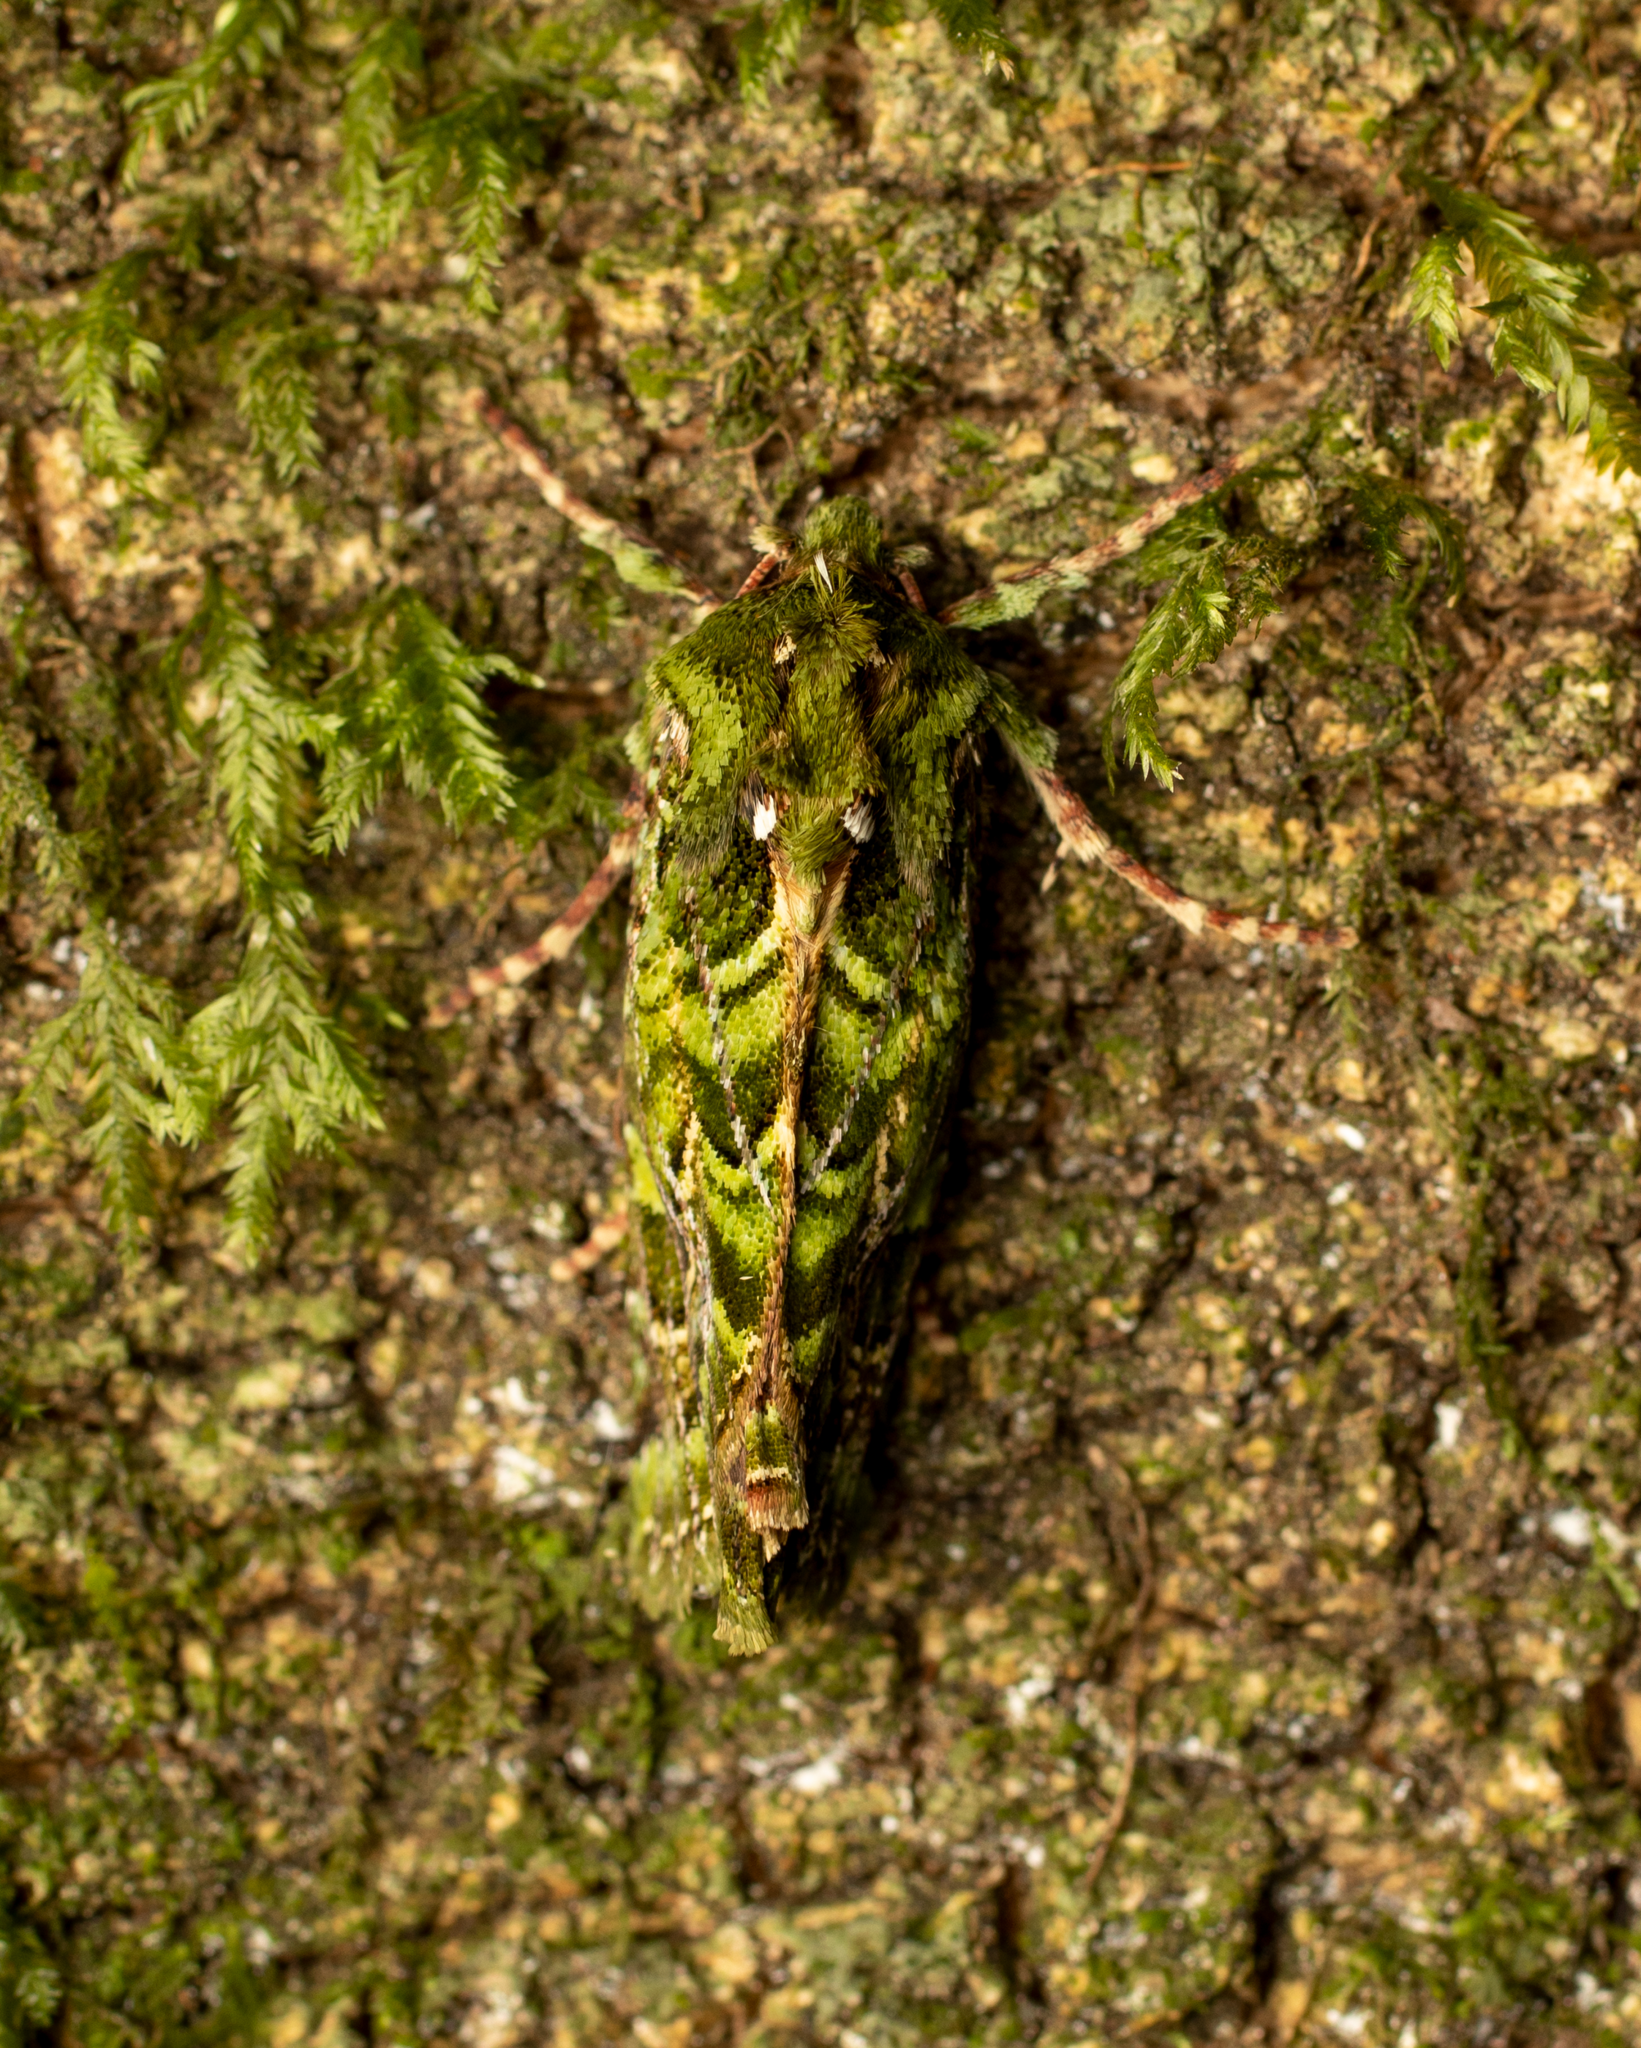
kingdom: Animalia
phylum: Arthropoda
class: Insecta
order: Lepidoptera
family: Noctuidae
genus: Feredayia
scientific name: Feredayia grammosa
